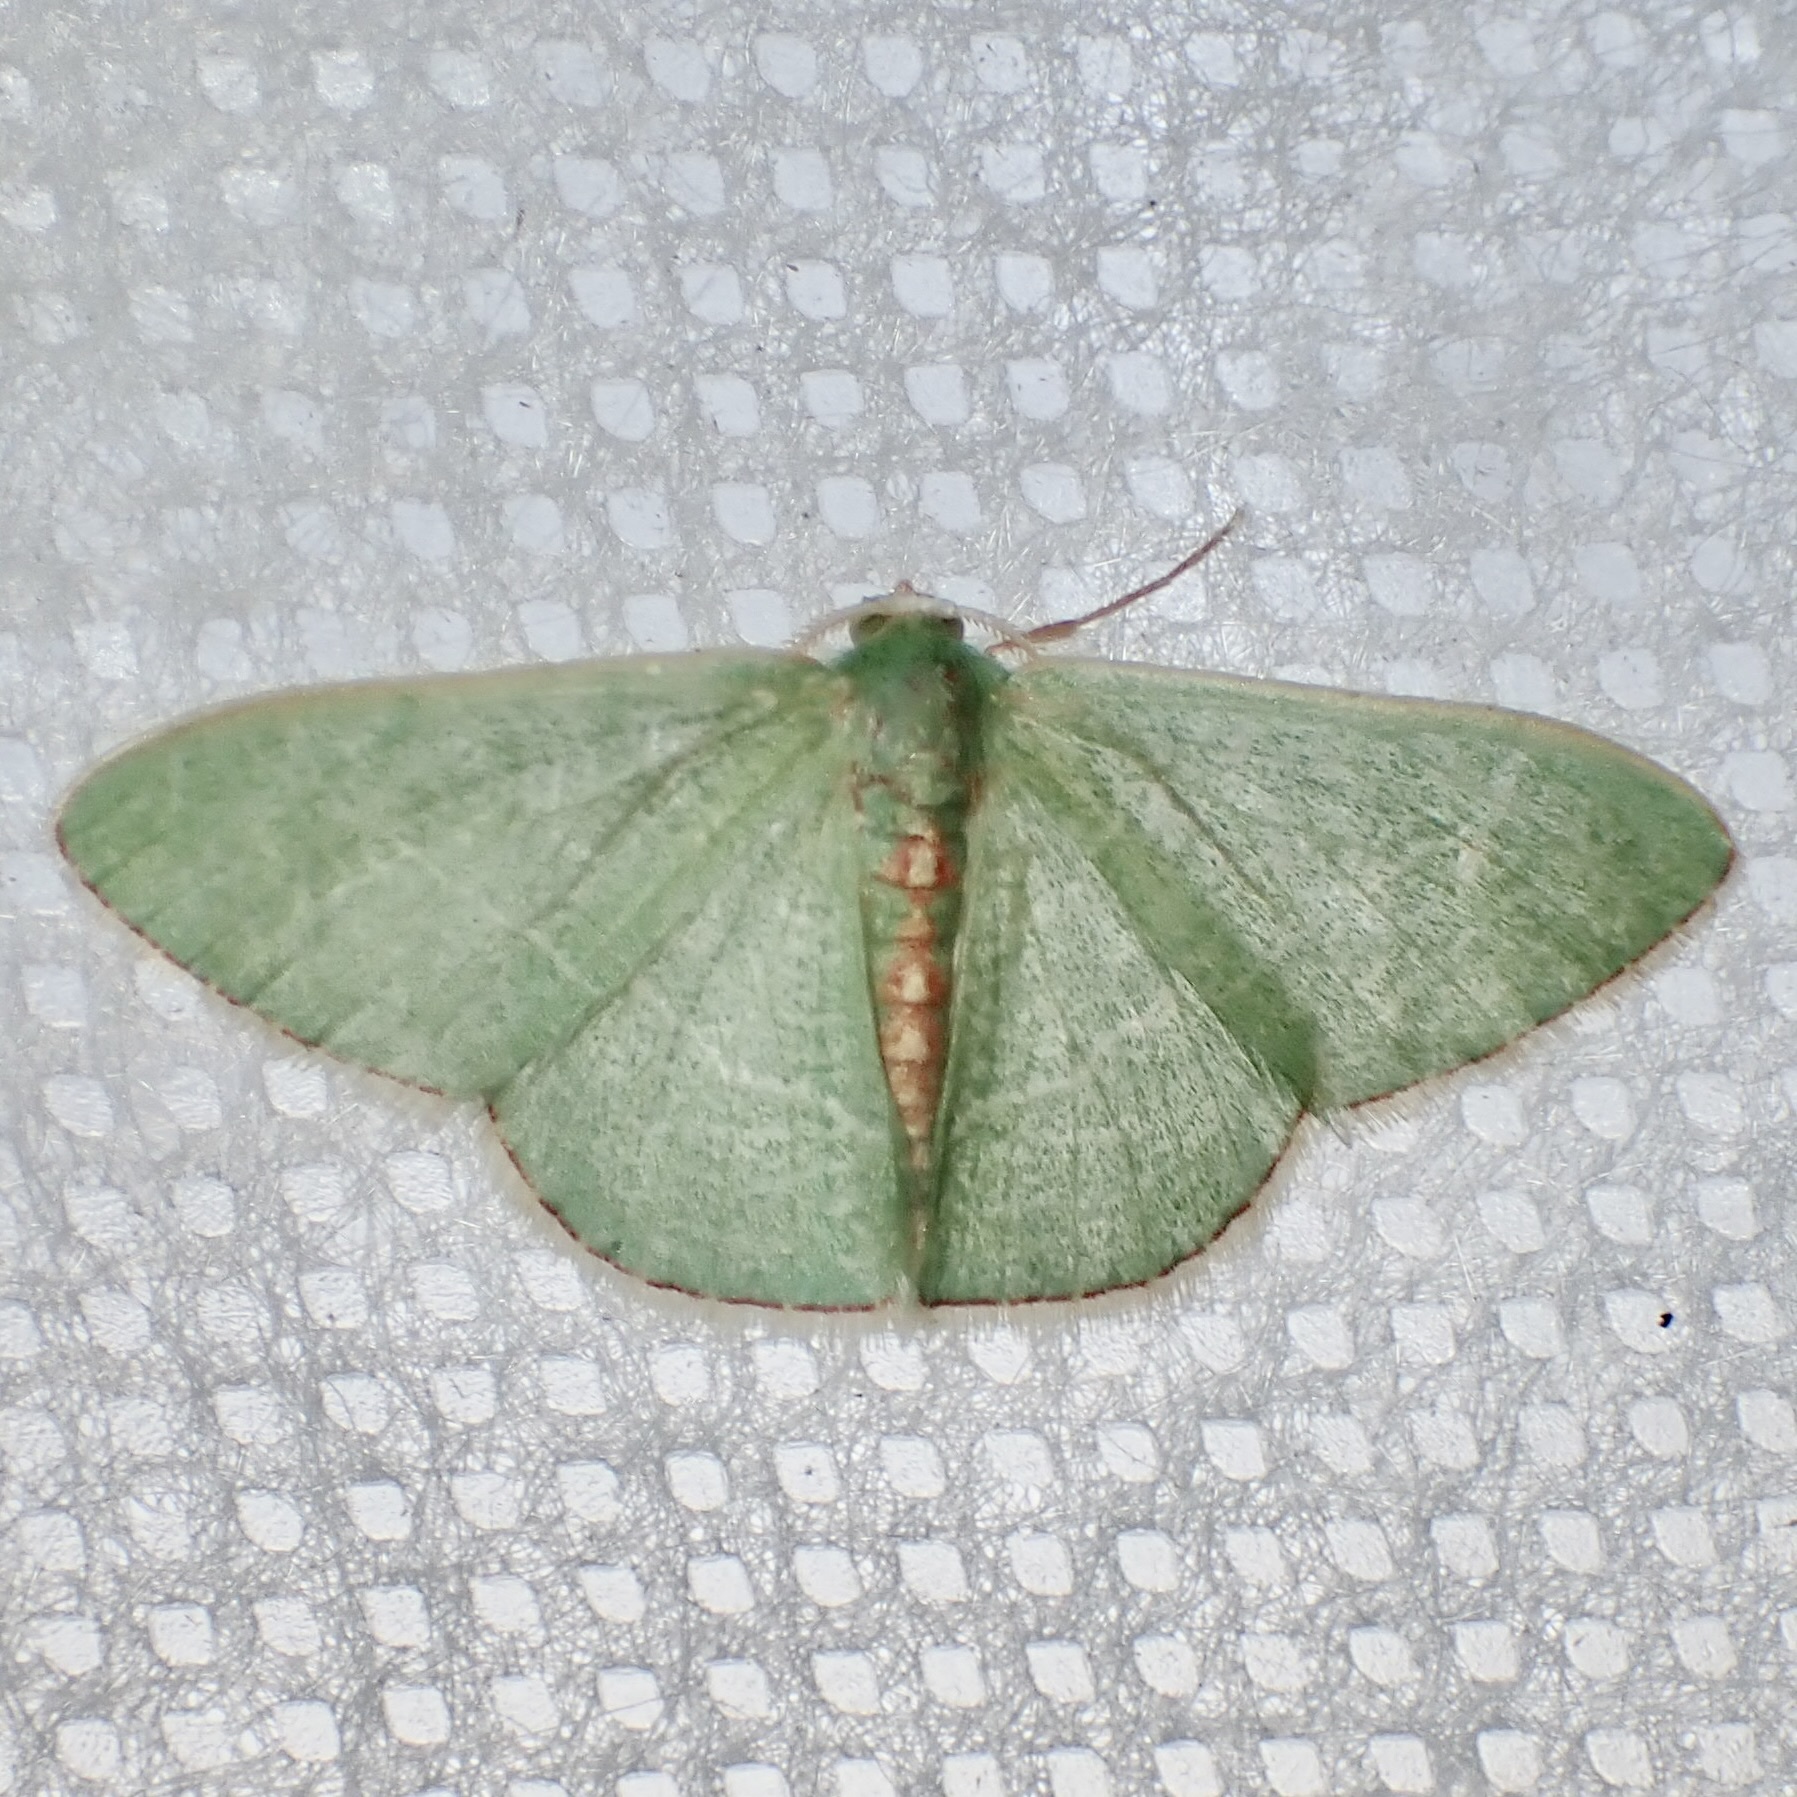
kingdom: Animalia
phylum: Arthropoda
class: Insecta
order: Lepidoptera
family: Geometridae
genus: Nemoria
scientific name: Nemoria festaria
